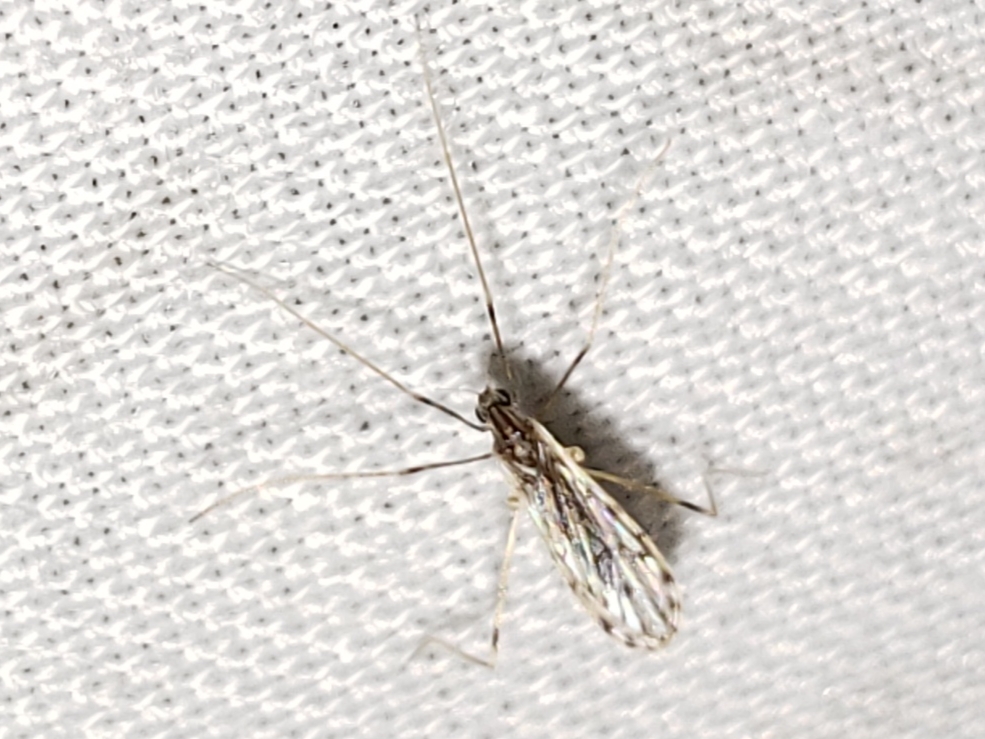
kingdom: Animalia
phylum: Arthropoda
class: Insecta
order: Diptera
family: Limoniidae
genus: Erioptera
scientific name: Erioptera parva
